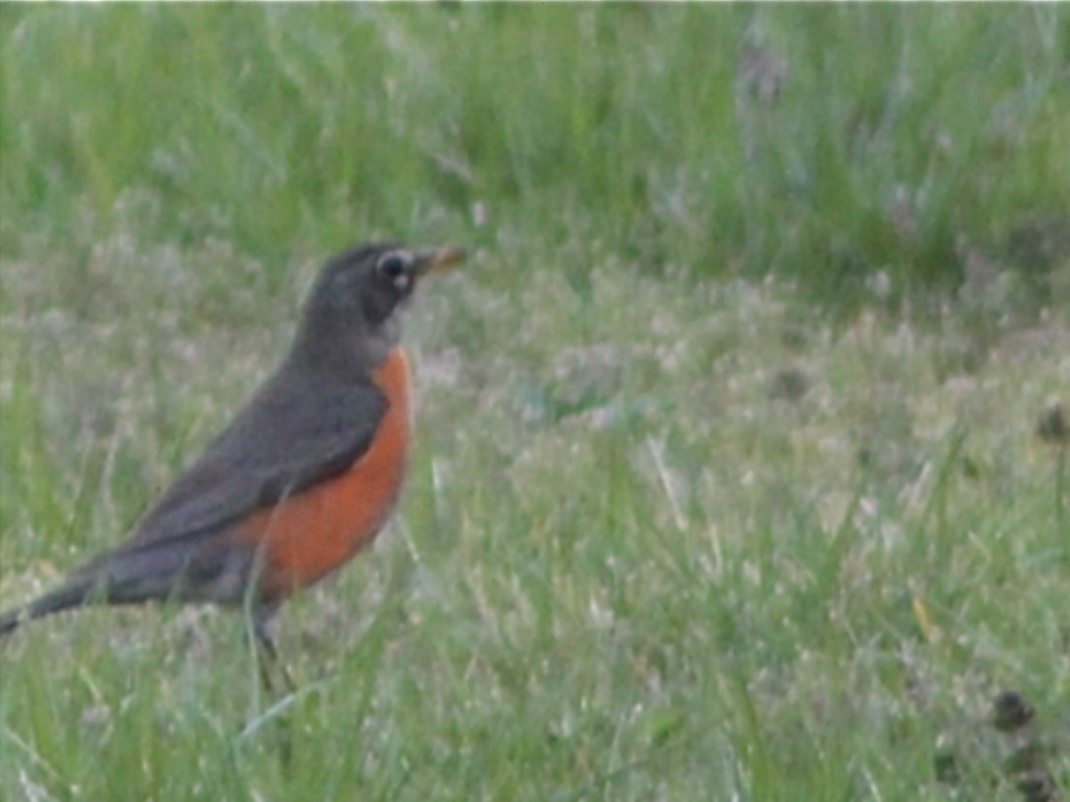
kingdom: Animalia
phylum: Chordata
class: Aves
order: Passeriformes
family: Turdidae
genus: Turdus
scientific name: Turdus migratorius
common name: American robin
